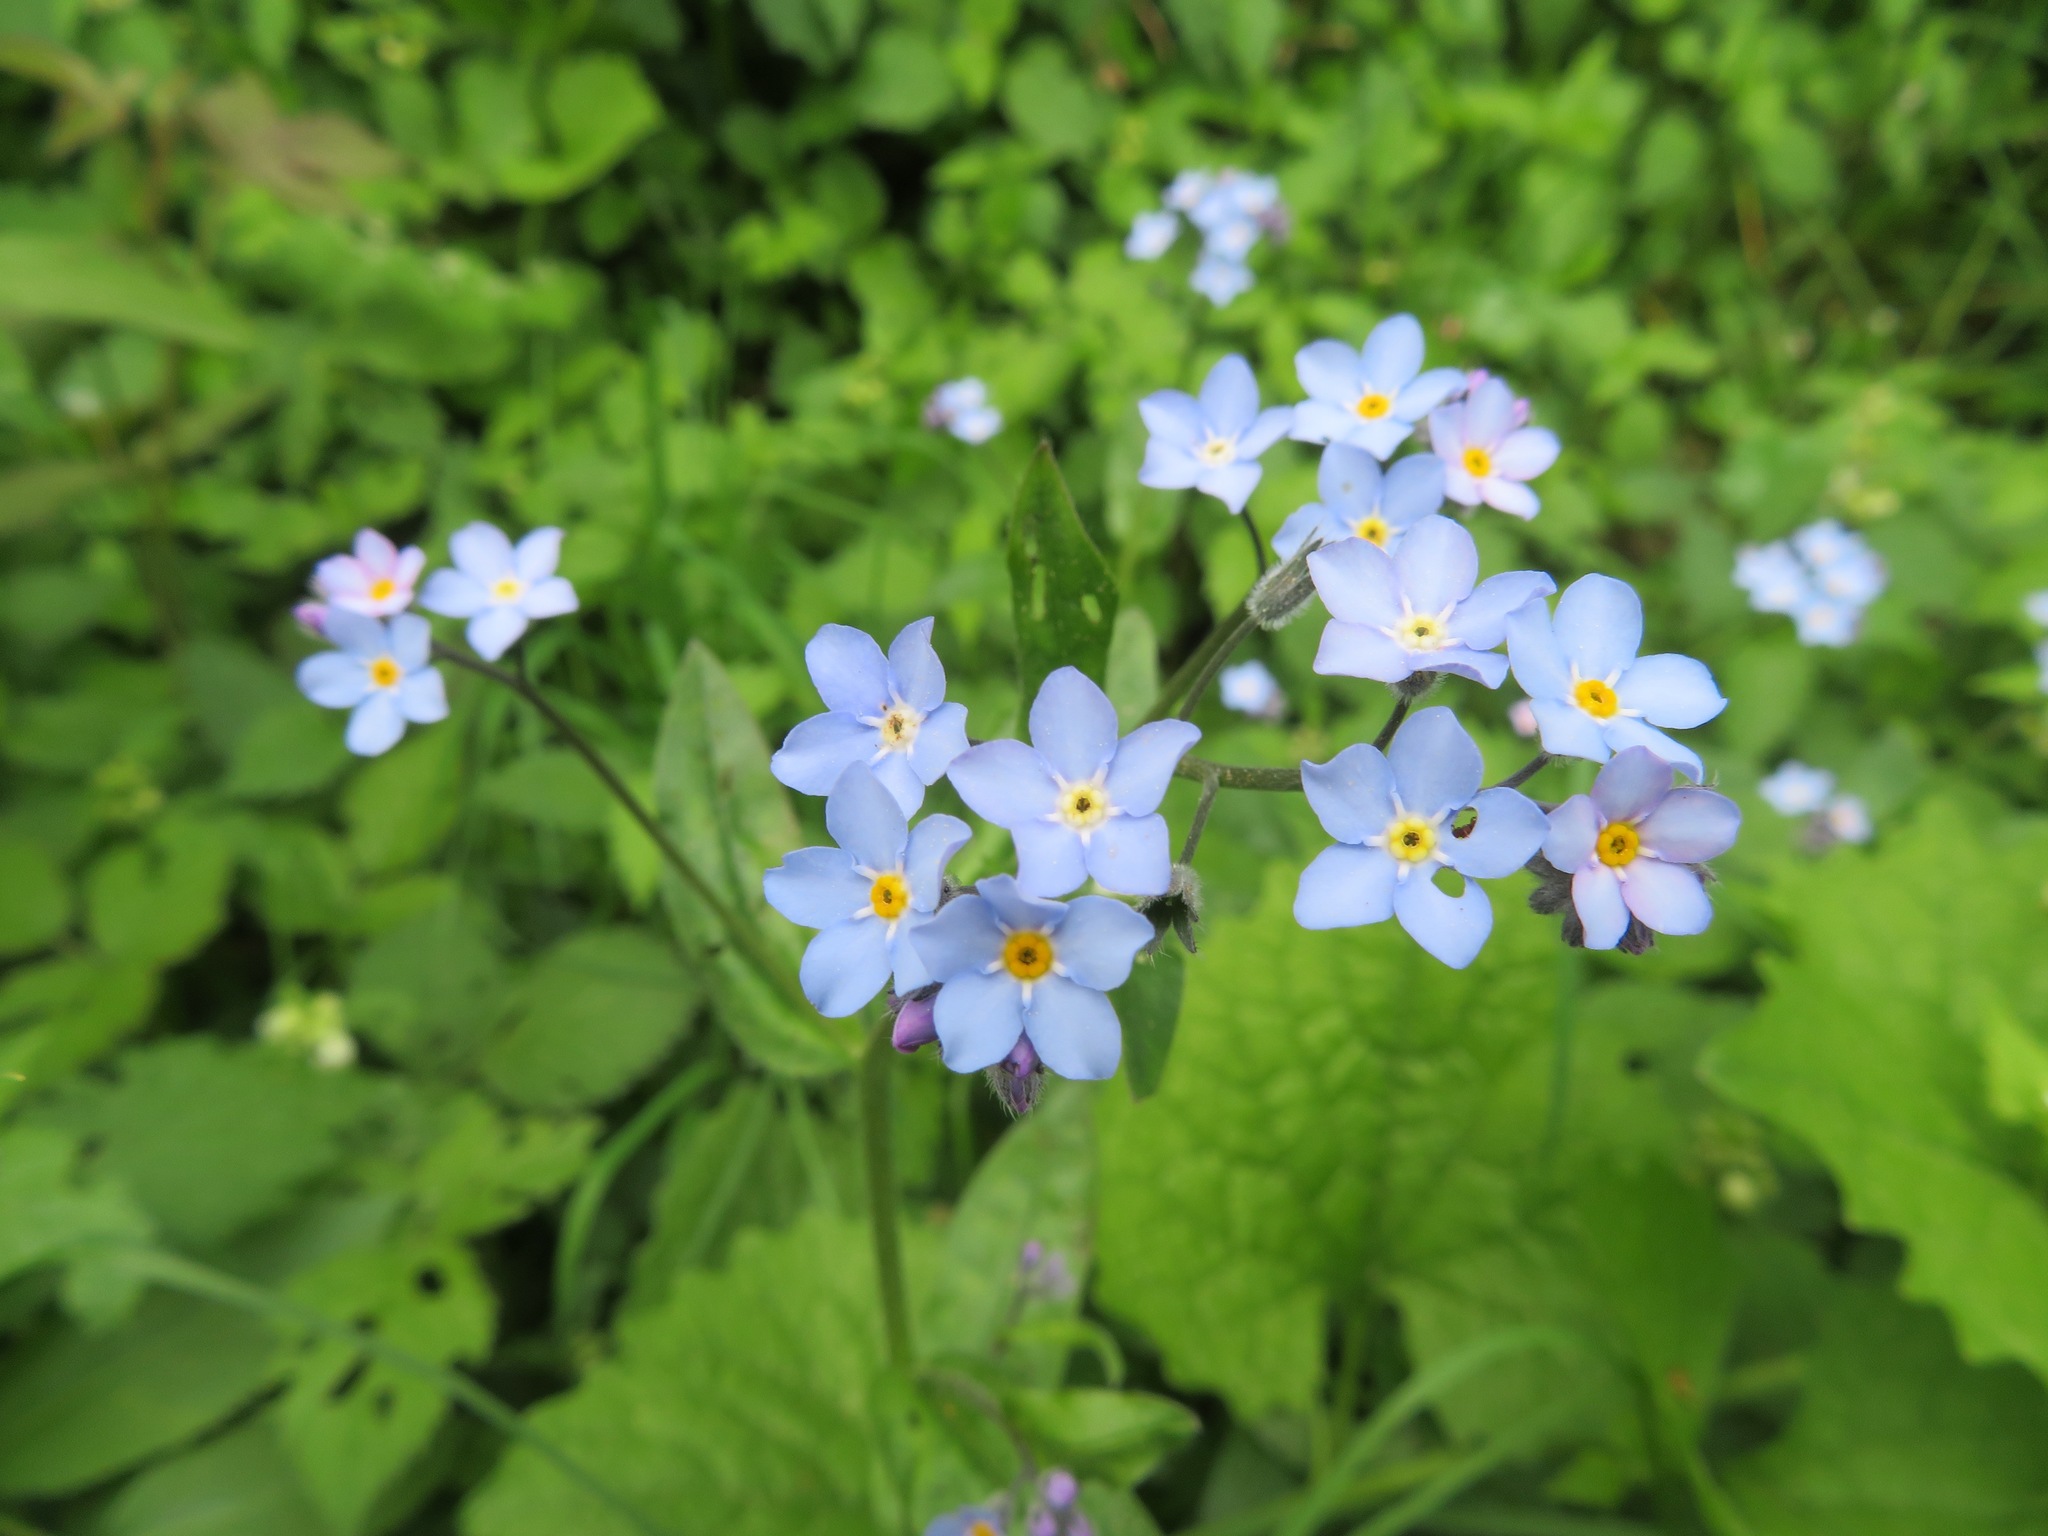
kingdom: Plantae
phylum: Tracheophyta
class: Magnoliopsida
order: Boraginales
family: Boraginaceae
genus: Myosotis
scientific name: Myosotis sylvatica
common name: Wood forget-me-not
